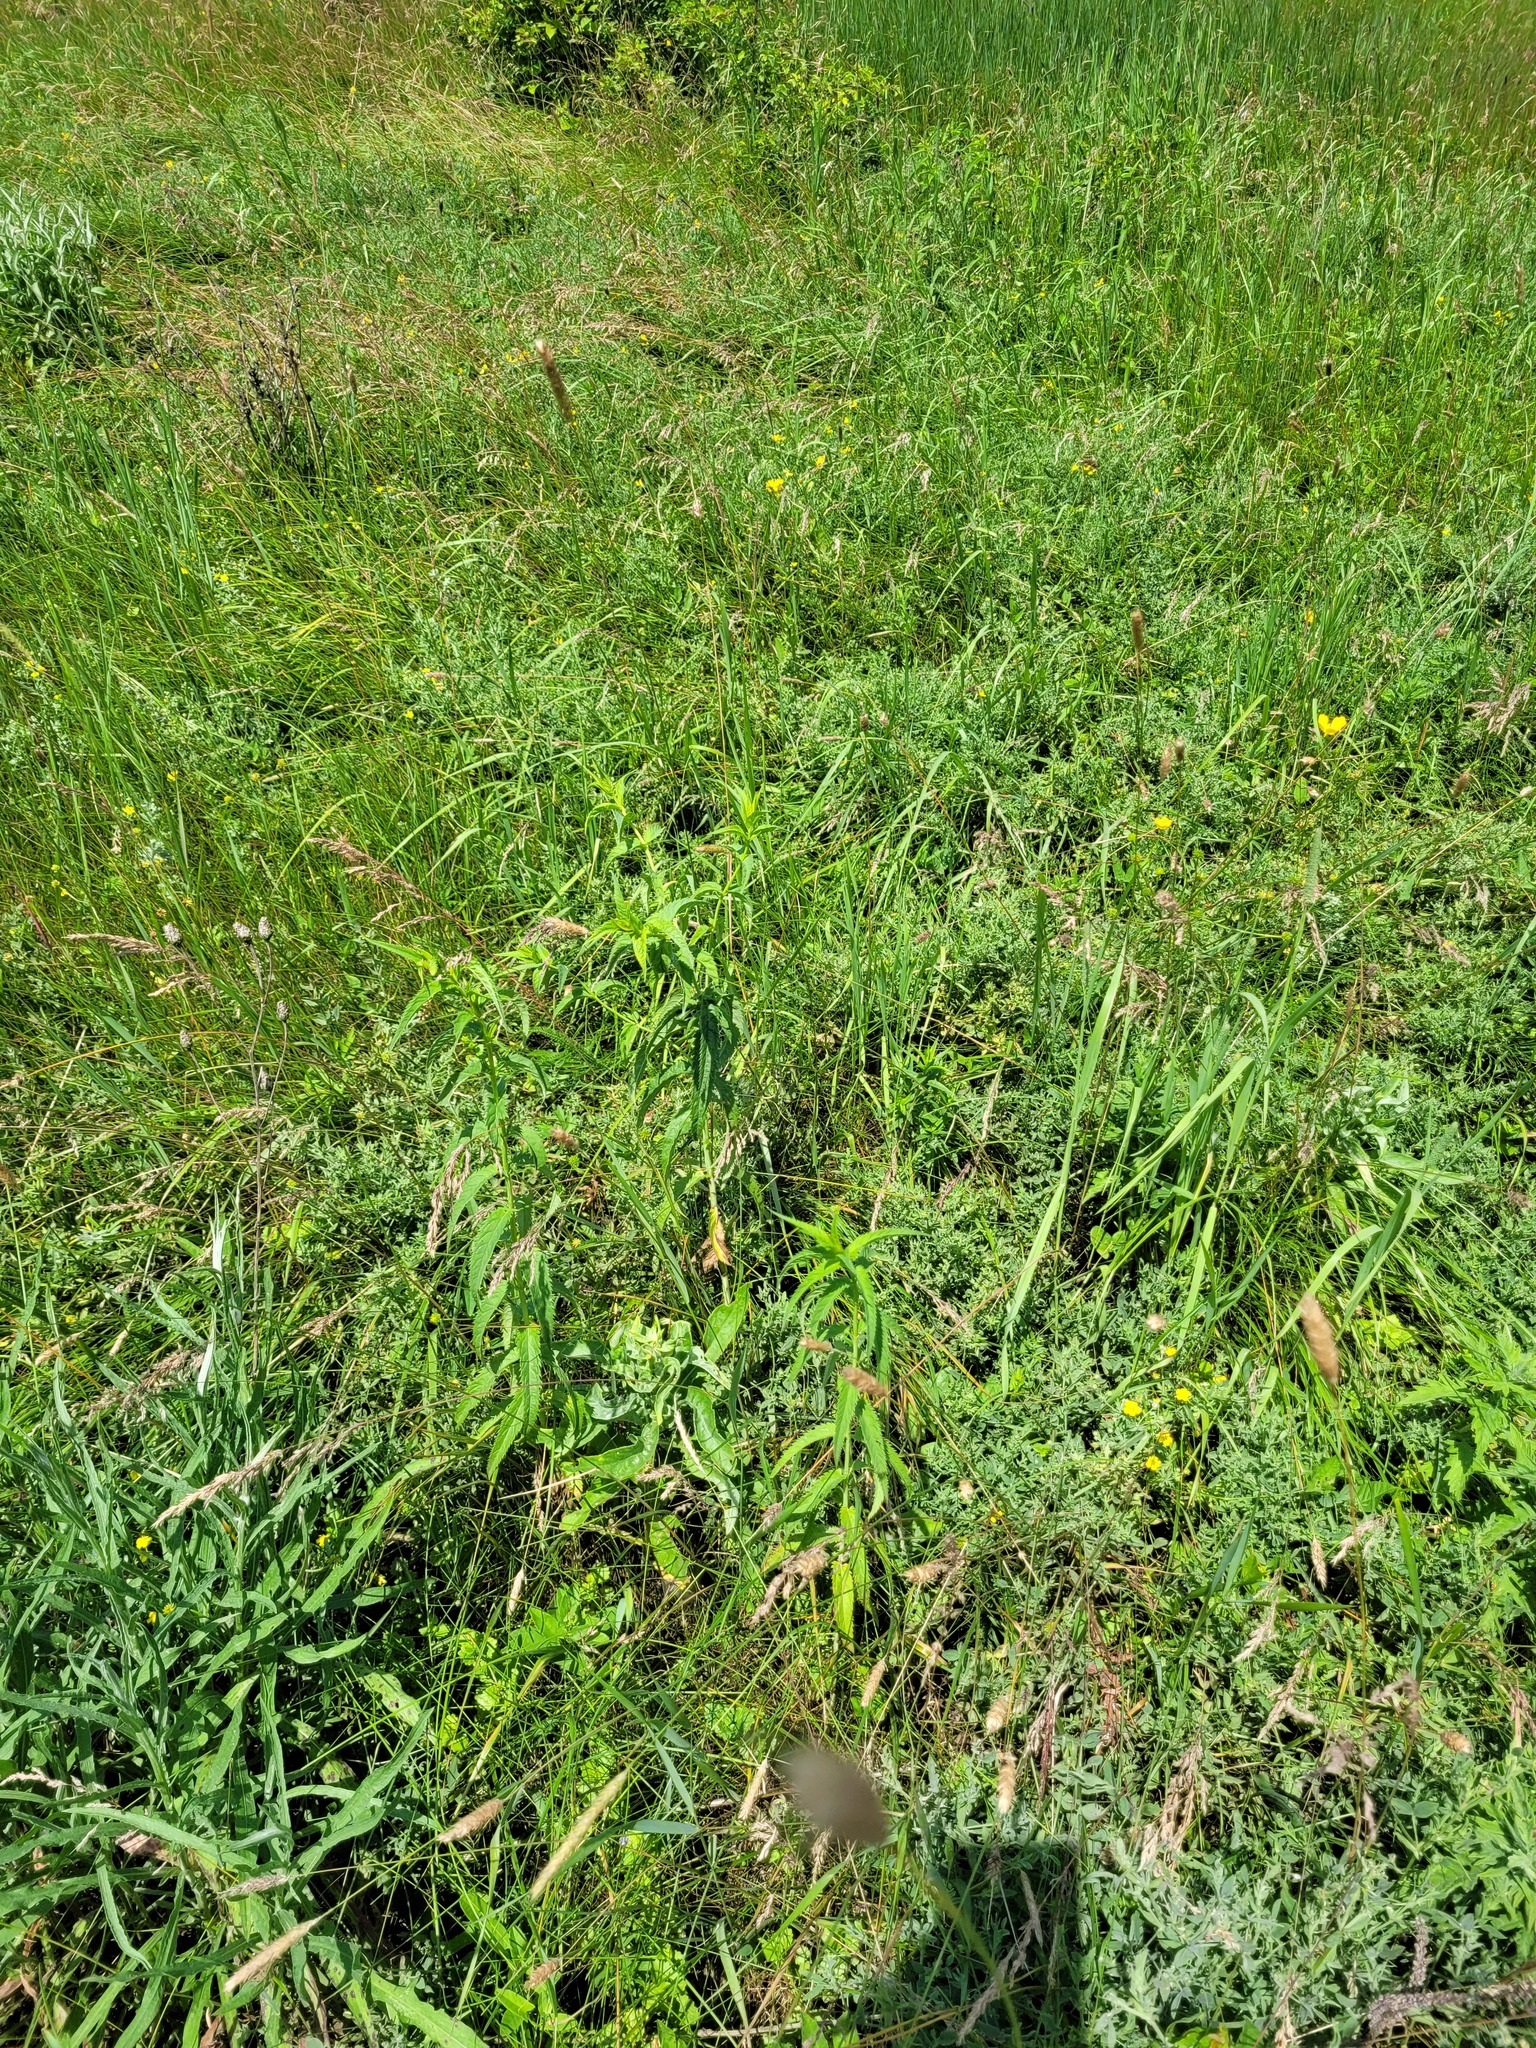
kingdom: Plantae
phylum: Tracheophyta
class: Magnoliopsida
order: Lamiales
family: Plantaginaceae
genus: Veronica
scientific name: Veronica longifolia
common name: Garden speedwell
